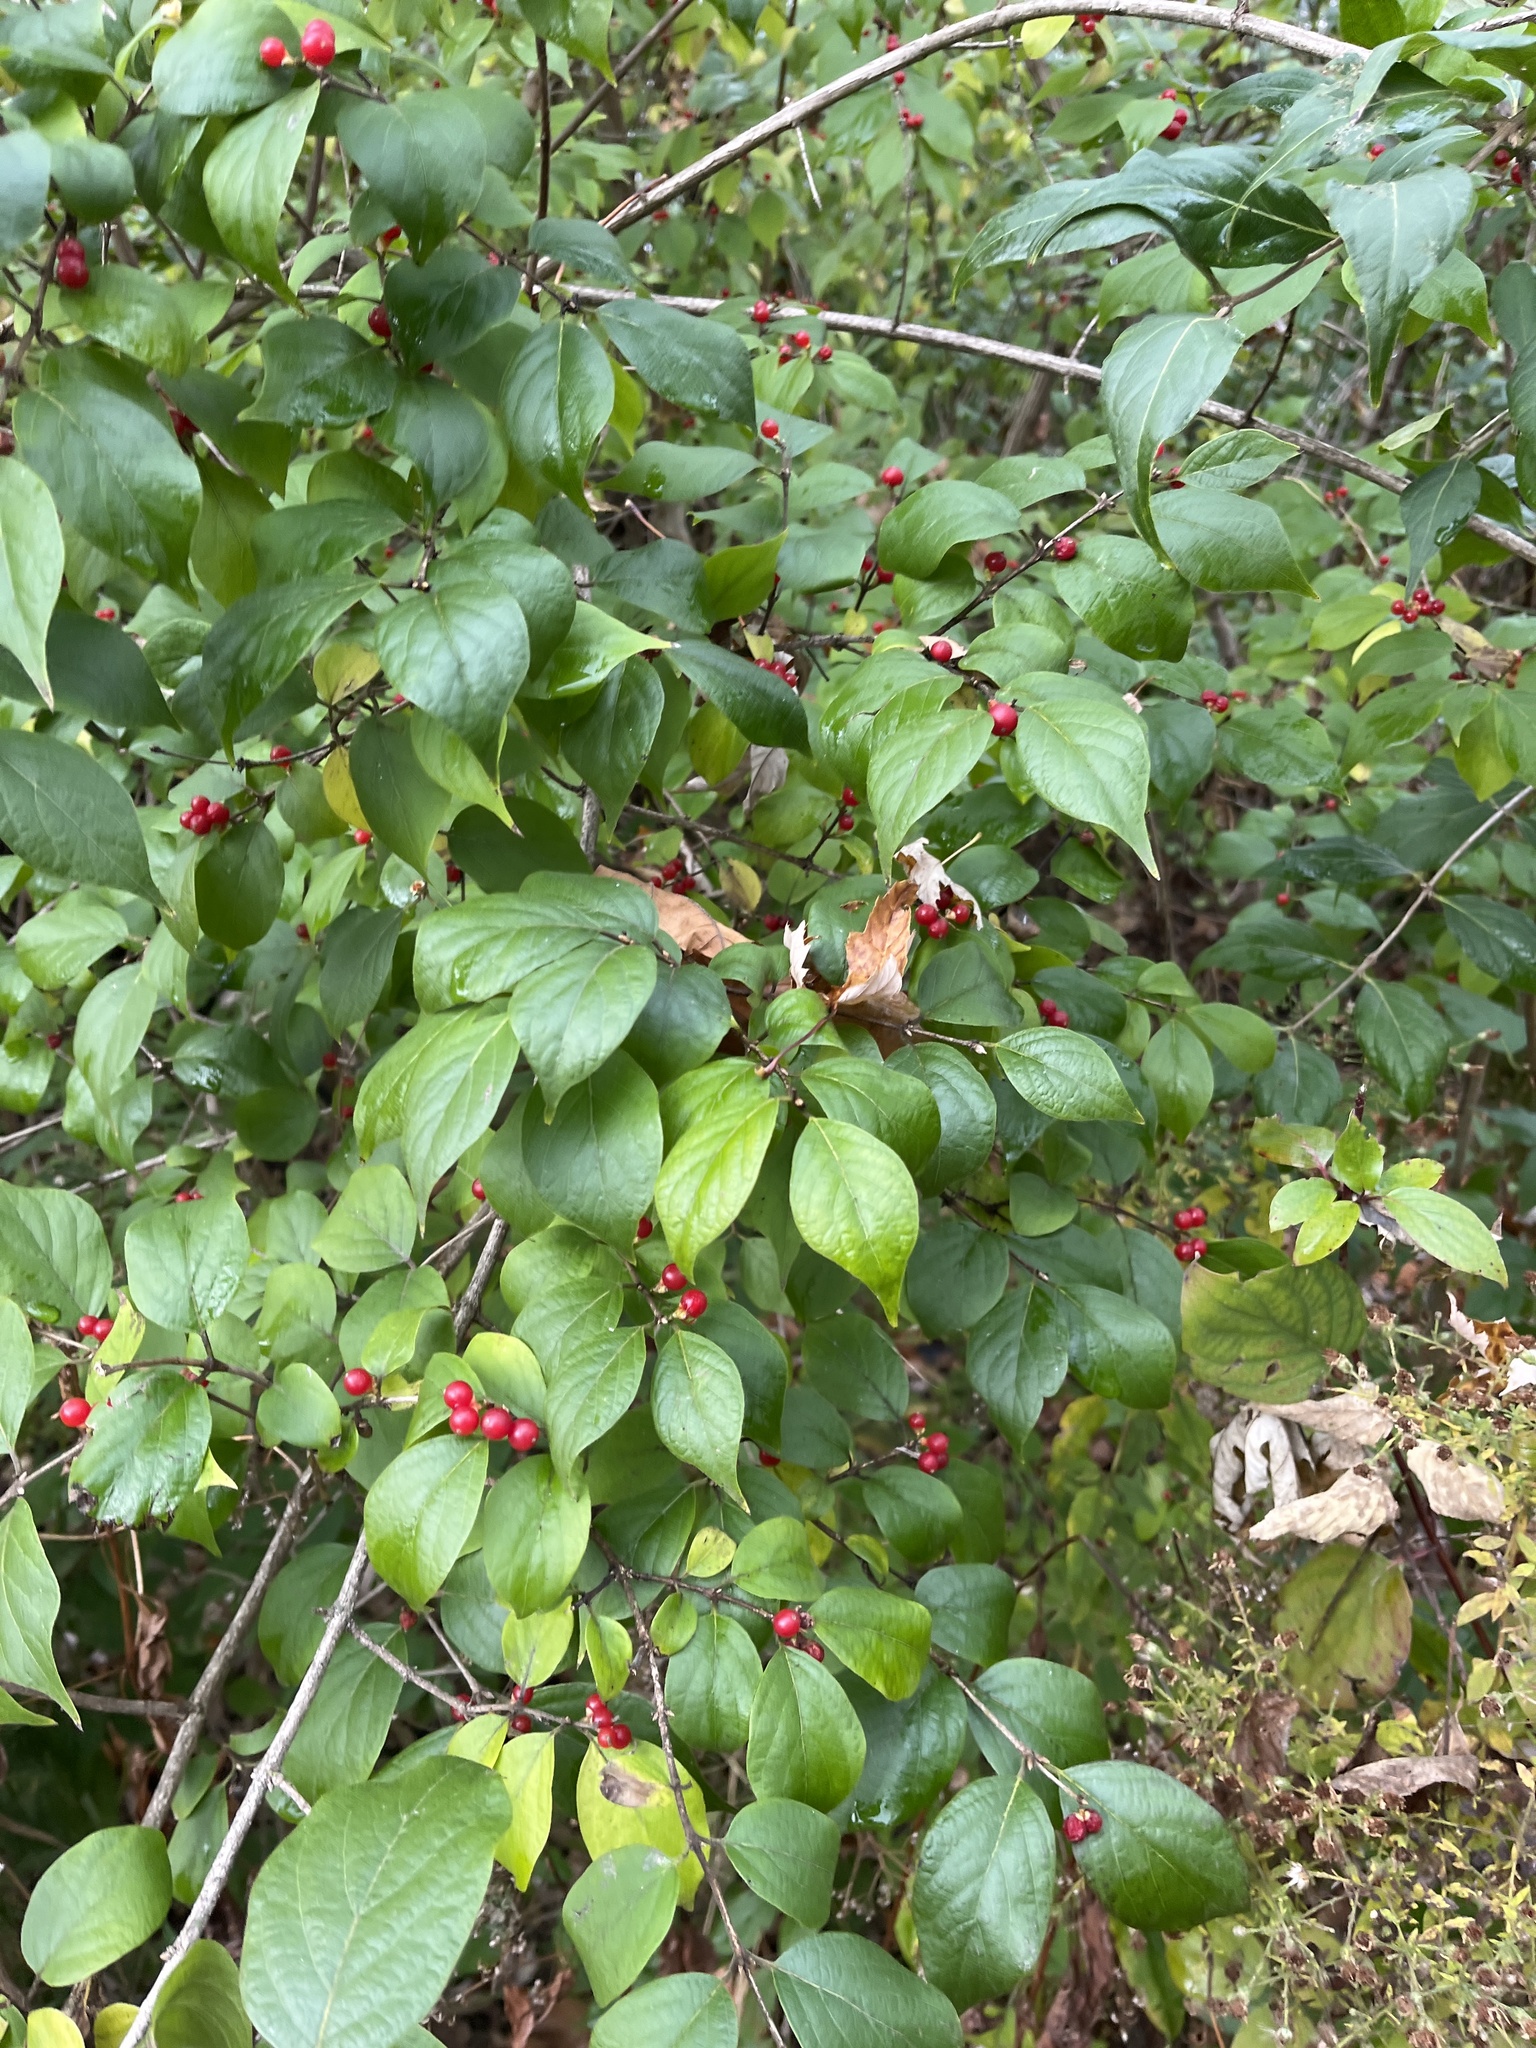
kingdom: Plantae
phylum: Tracheophyta
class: Magnoliopsida
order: Dipsacales
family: Caprifoliaceae
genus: Lonicera
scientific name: Lonicera maackii
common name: Amur honeysuckle
